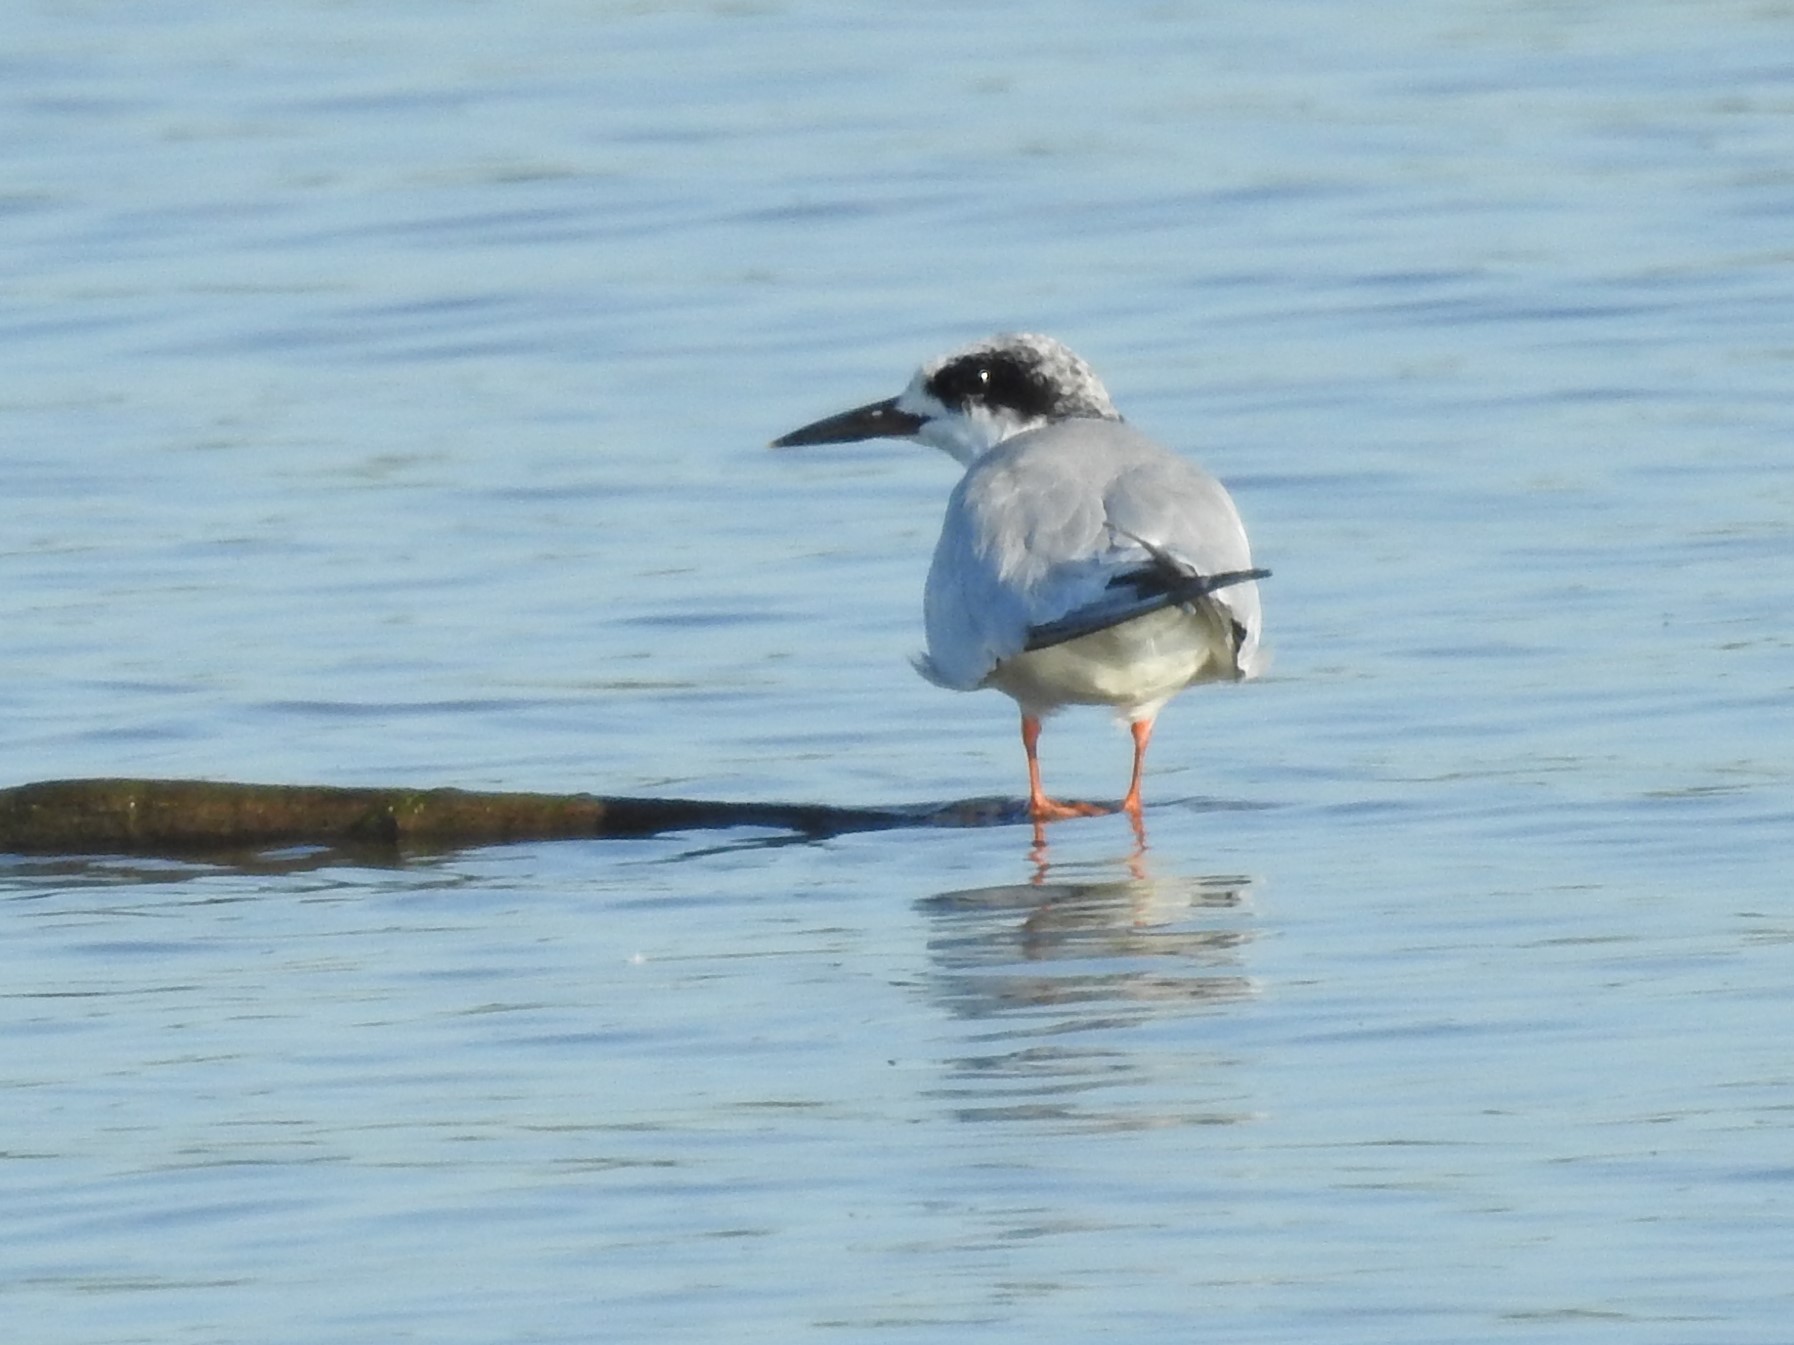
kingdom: Animalia
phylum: Chordata
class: Aves
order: Charadriiformes
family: Laridae
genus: Sterna
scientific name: Sterna forsteri
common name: Forster's tern
